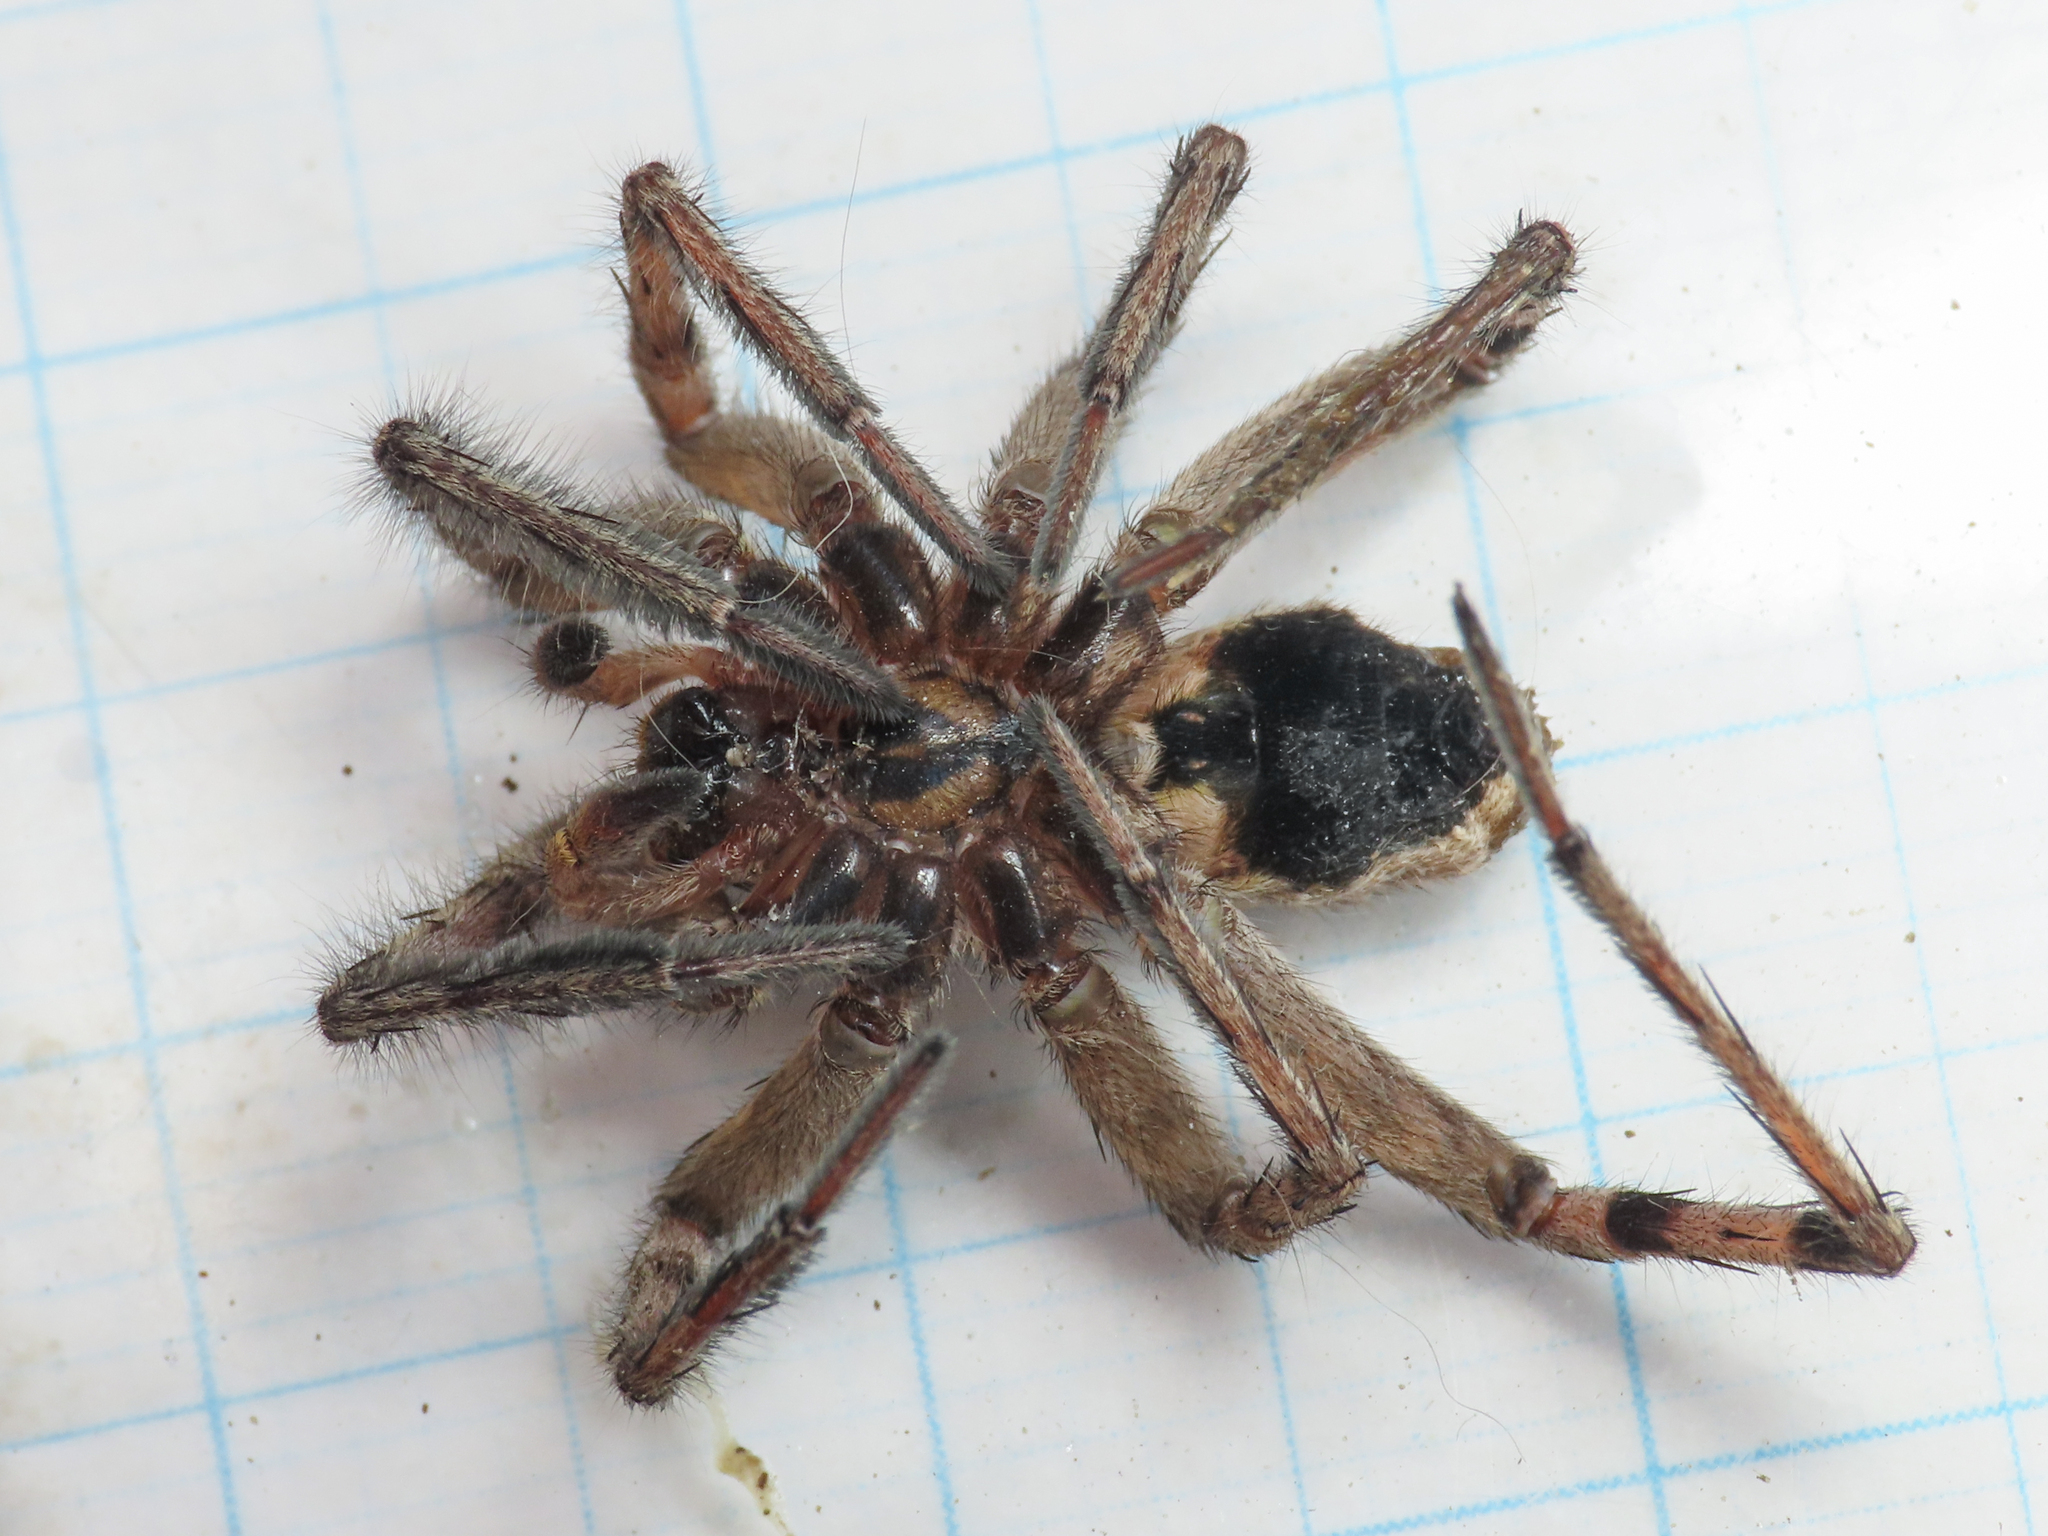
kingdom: Animalia
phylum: Arthropoda
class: Arachnida
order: Araneae
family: Lycosidae
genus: Hogna
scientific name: Hogna radiata
